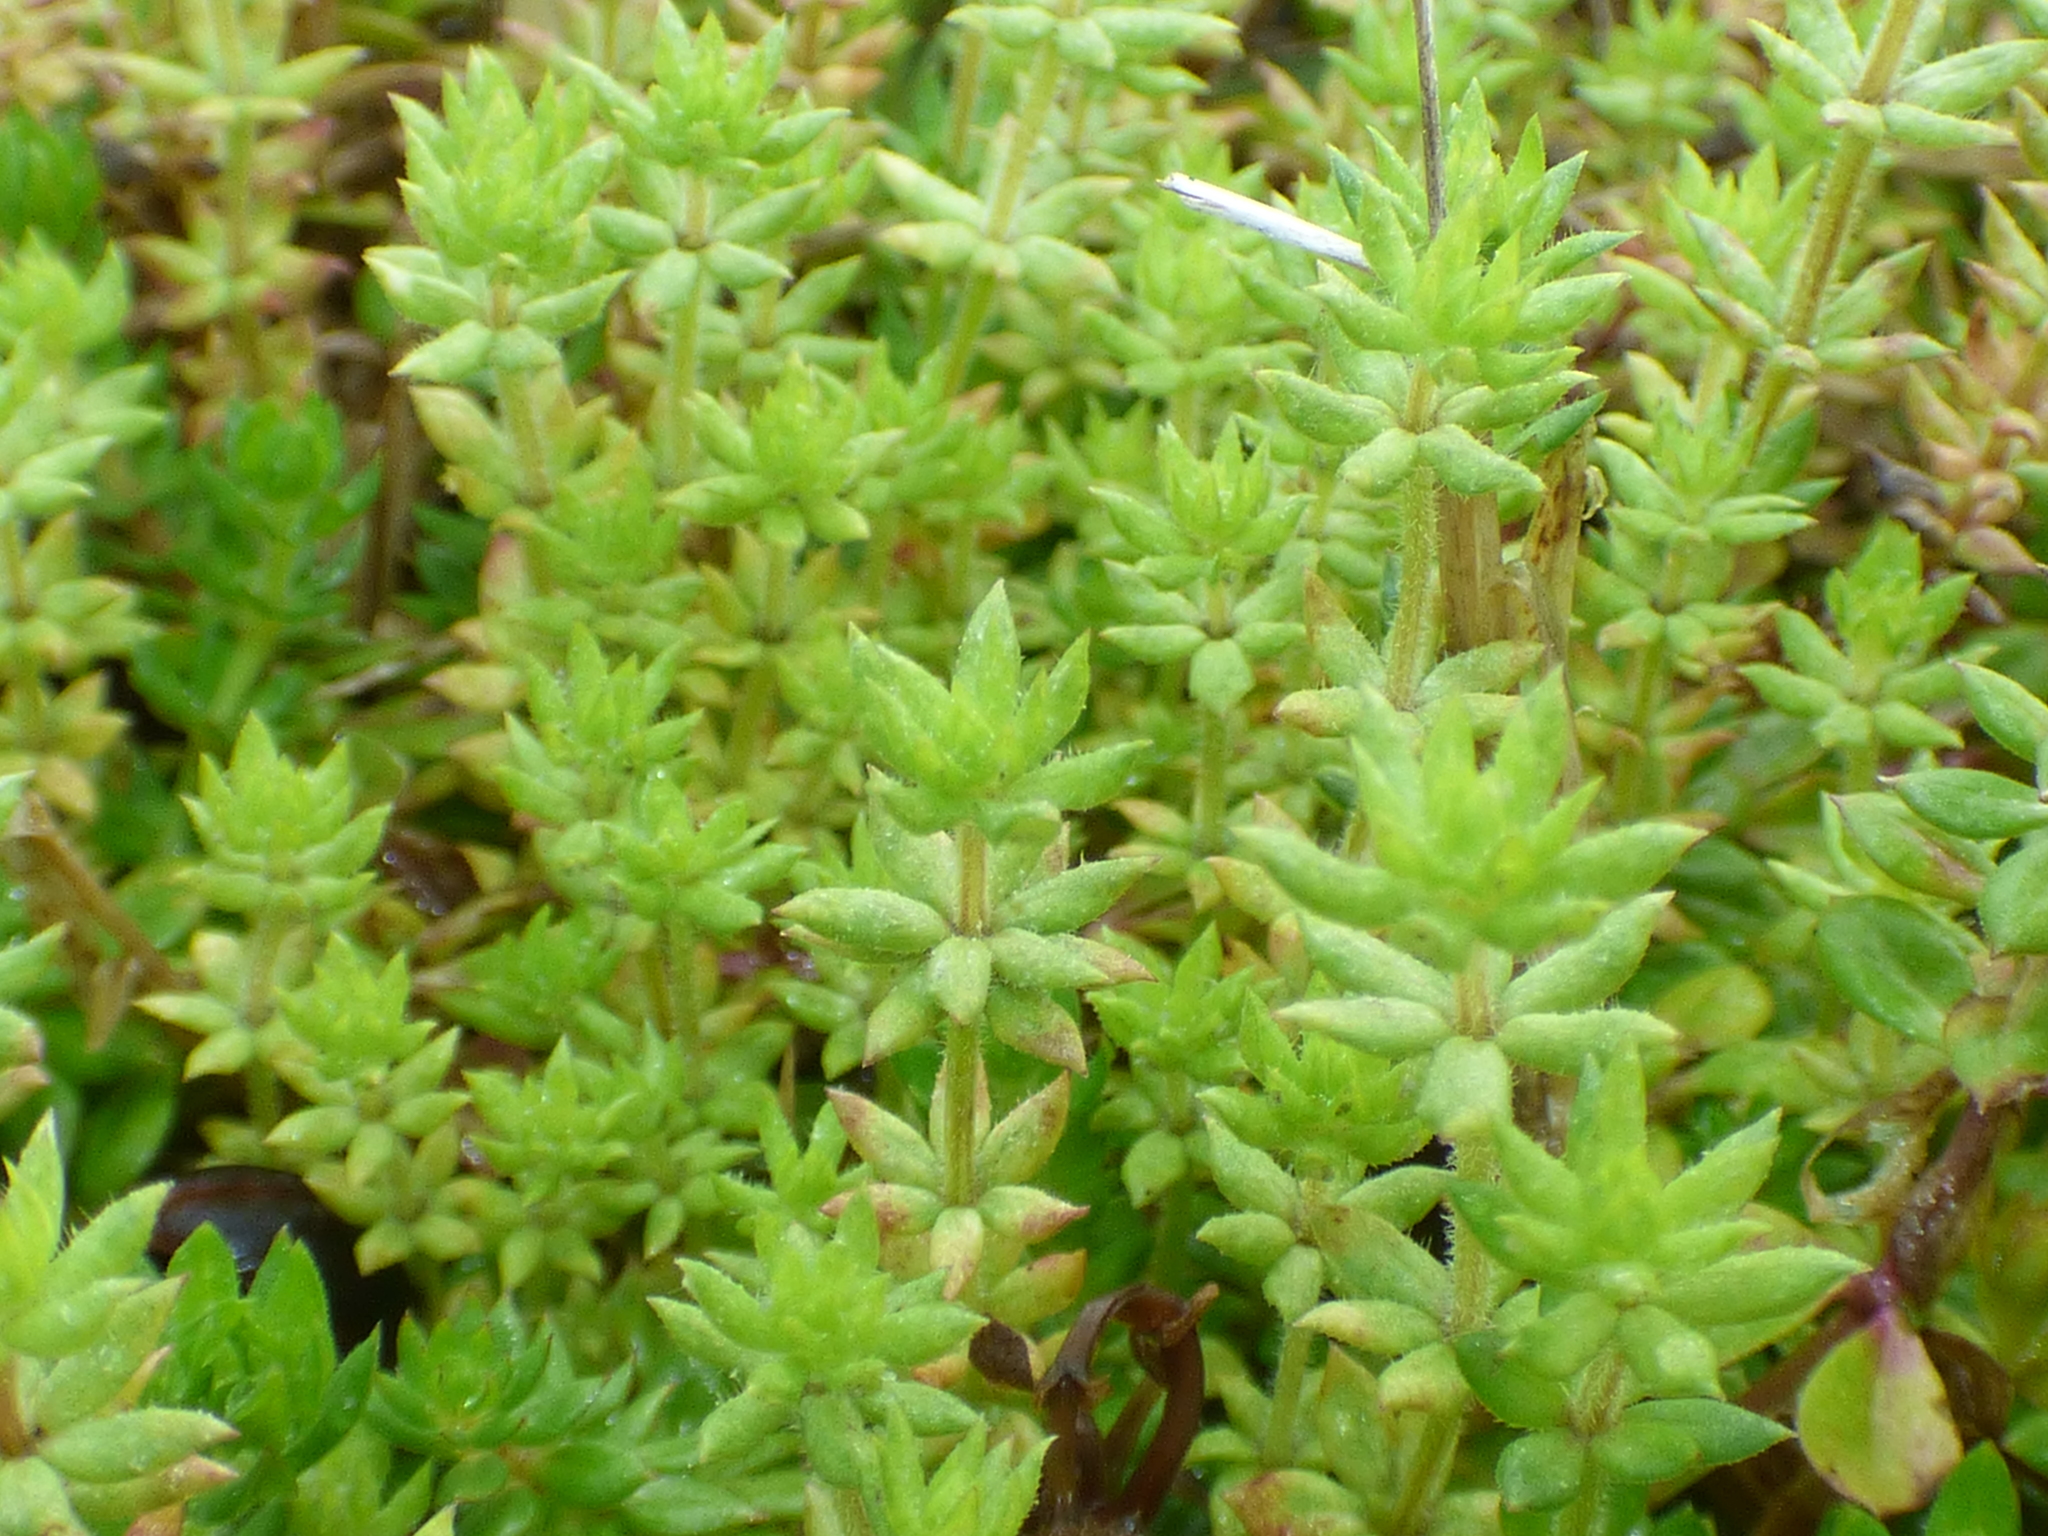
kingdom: Plantae
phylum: Tracheophyta
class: Magnoliopsida
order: Gentianales
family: Rubiaceae
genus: Sherardia
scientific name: Sherardia arvensis
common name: Field madder
